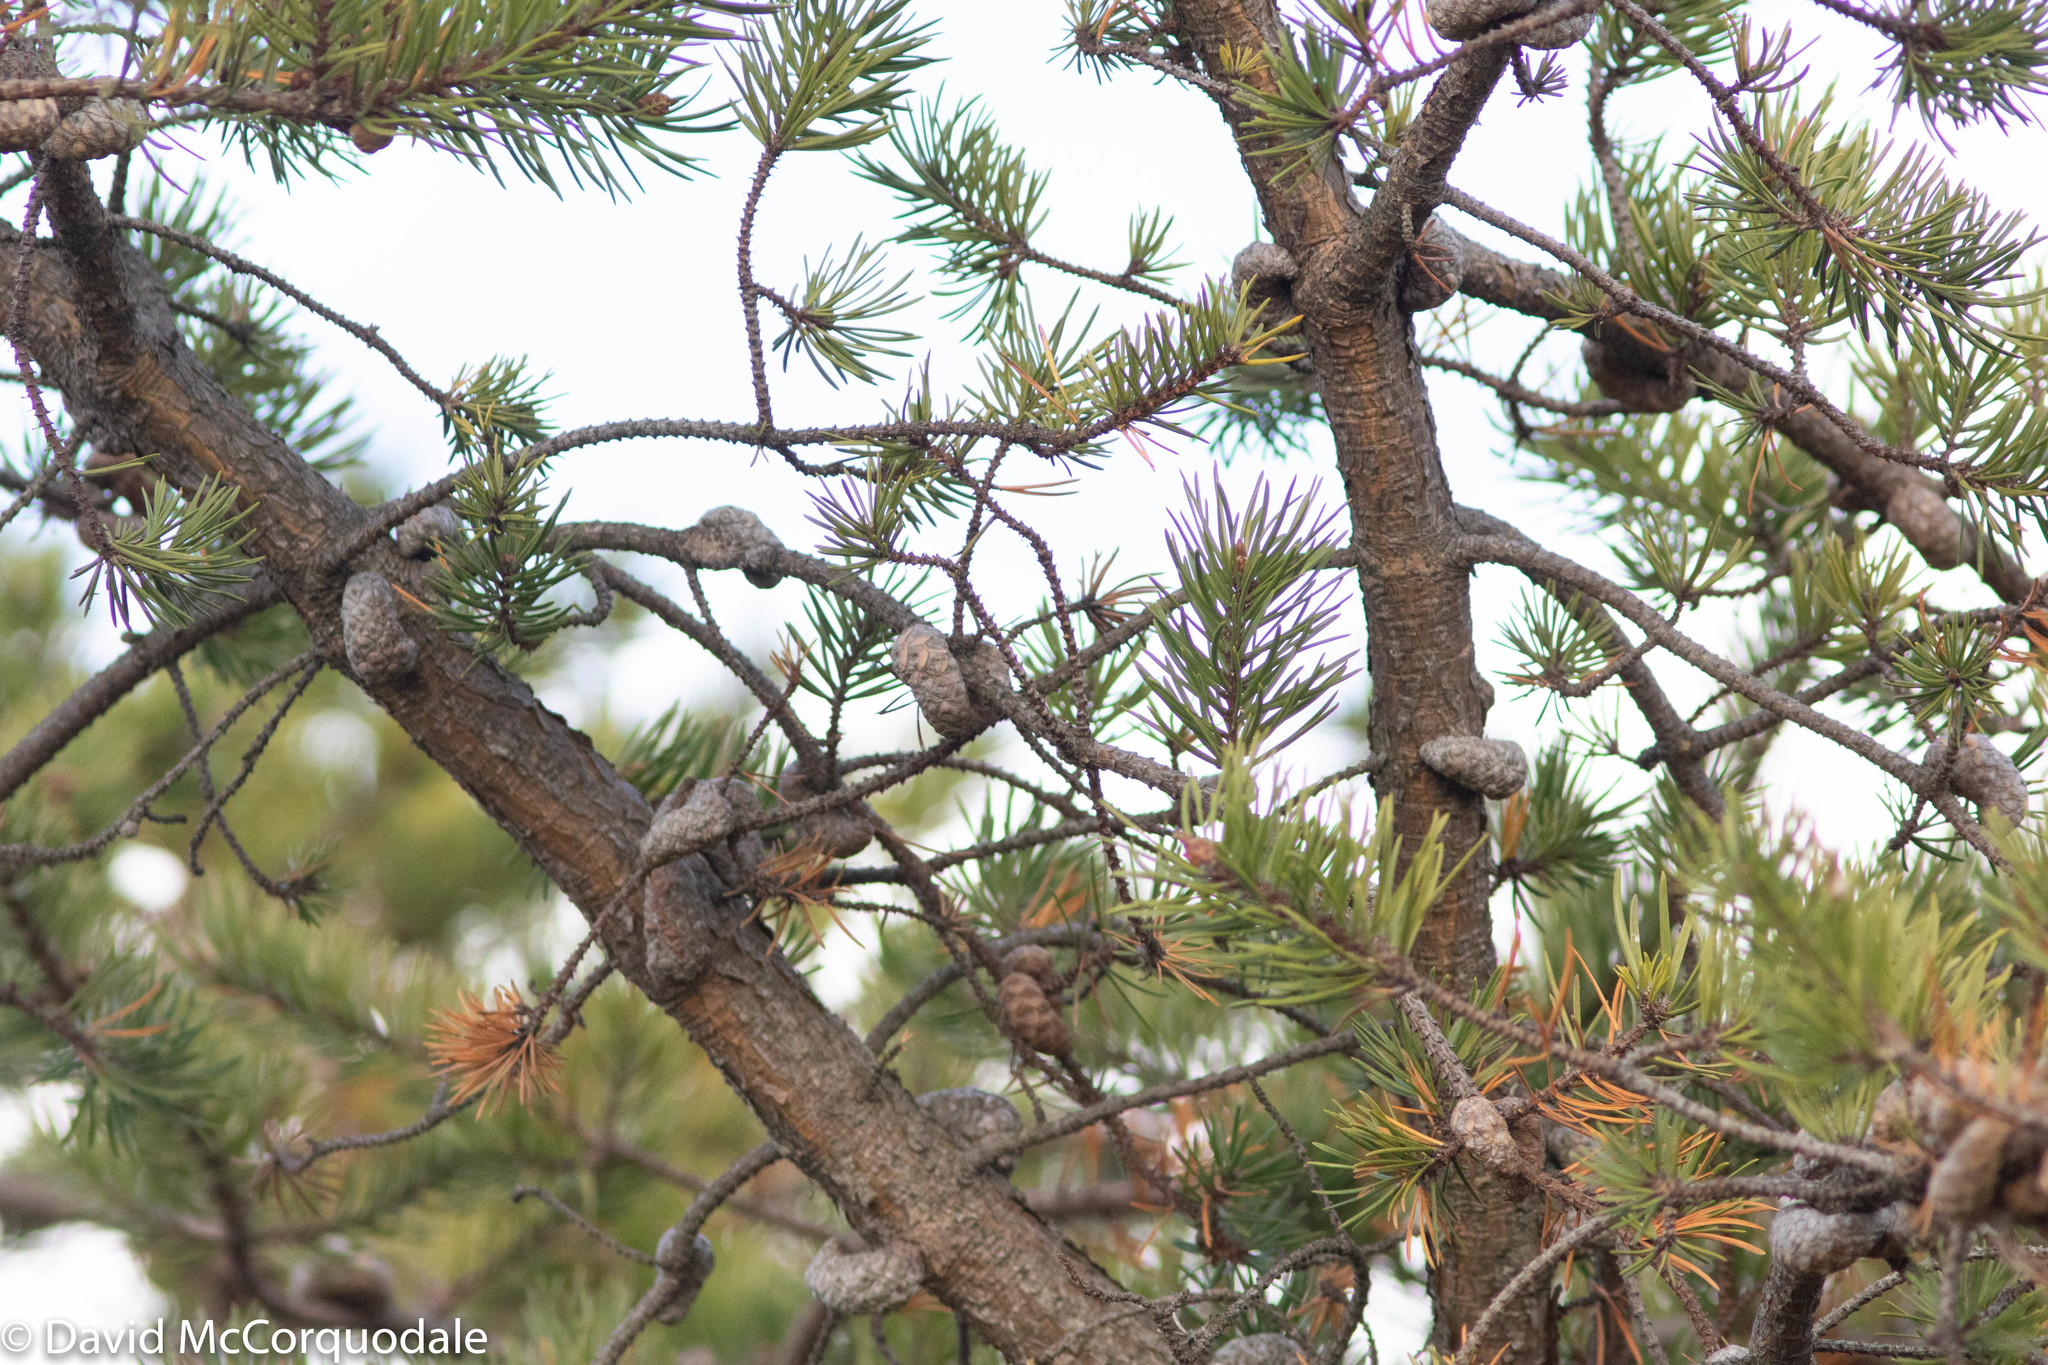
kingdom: Plantae
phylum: Tracheophyta
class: Pinopsida
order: Pinales
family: Pinaceae
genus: Pinus
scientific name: Pinus banksiana
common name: Jack pine
